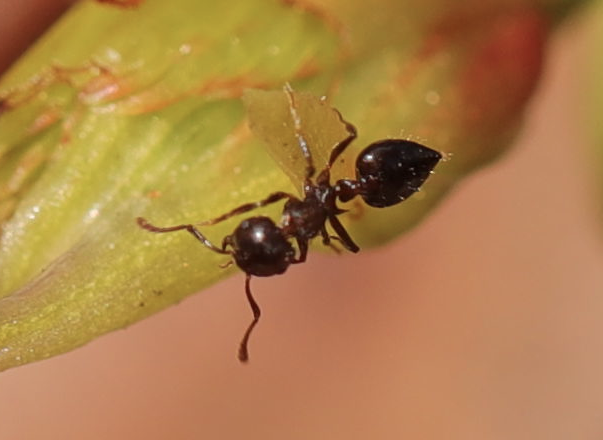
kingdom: Animalia
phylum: Arthropoda
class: Insecta
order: Hymenoptera
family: Formicidae
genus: Crematogaster
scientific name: Crematogaster
